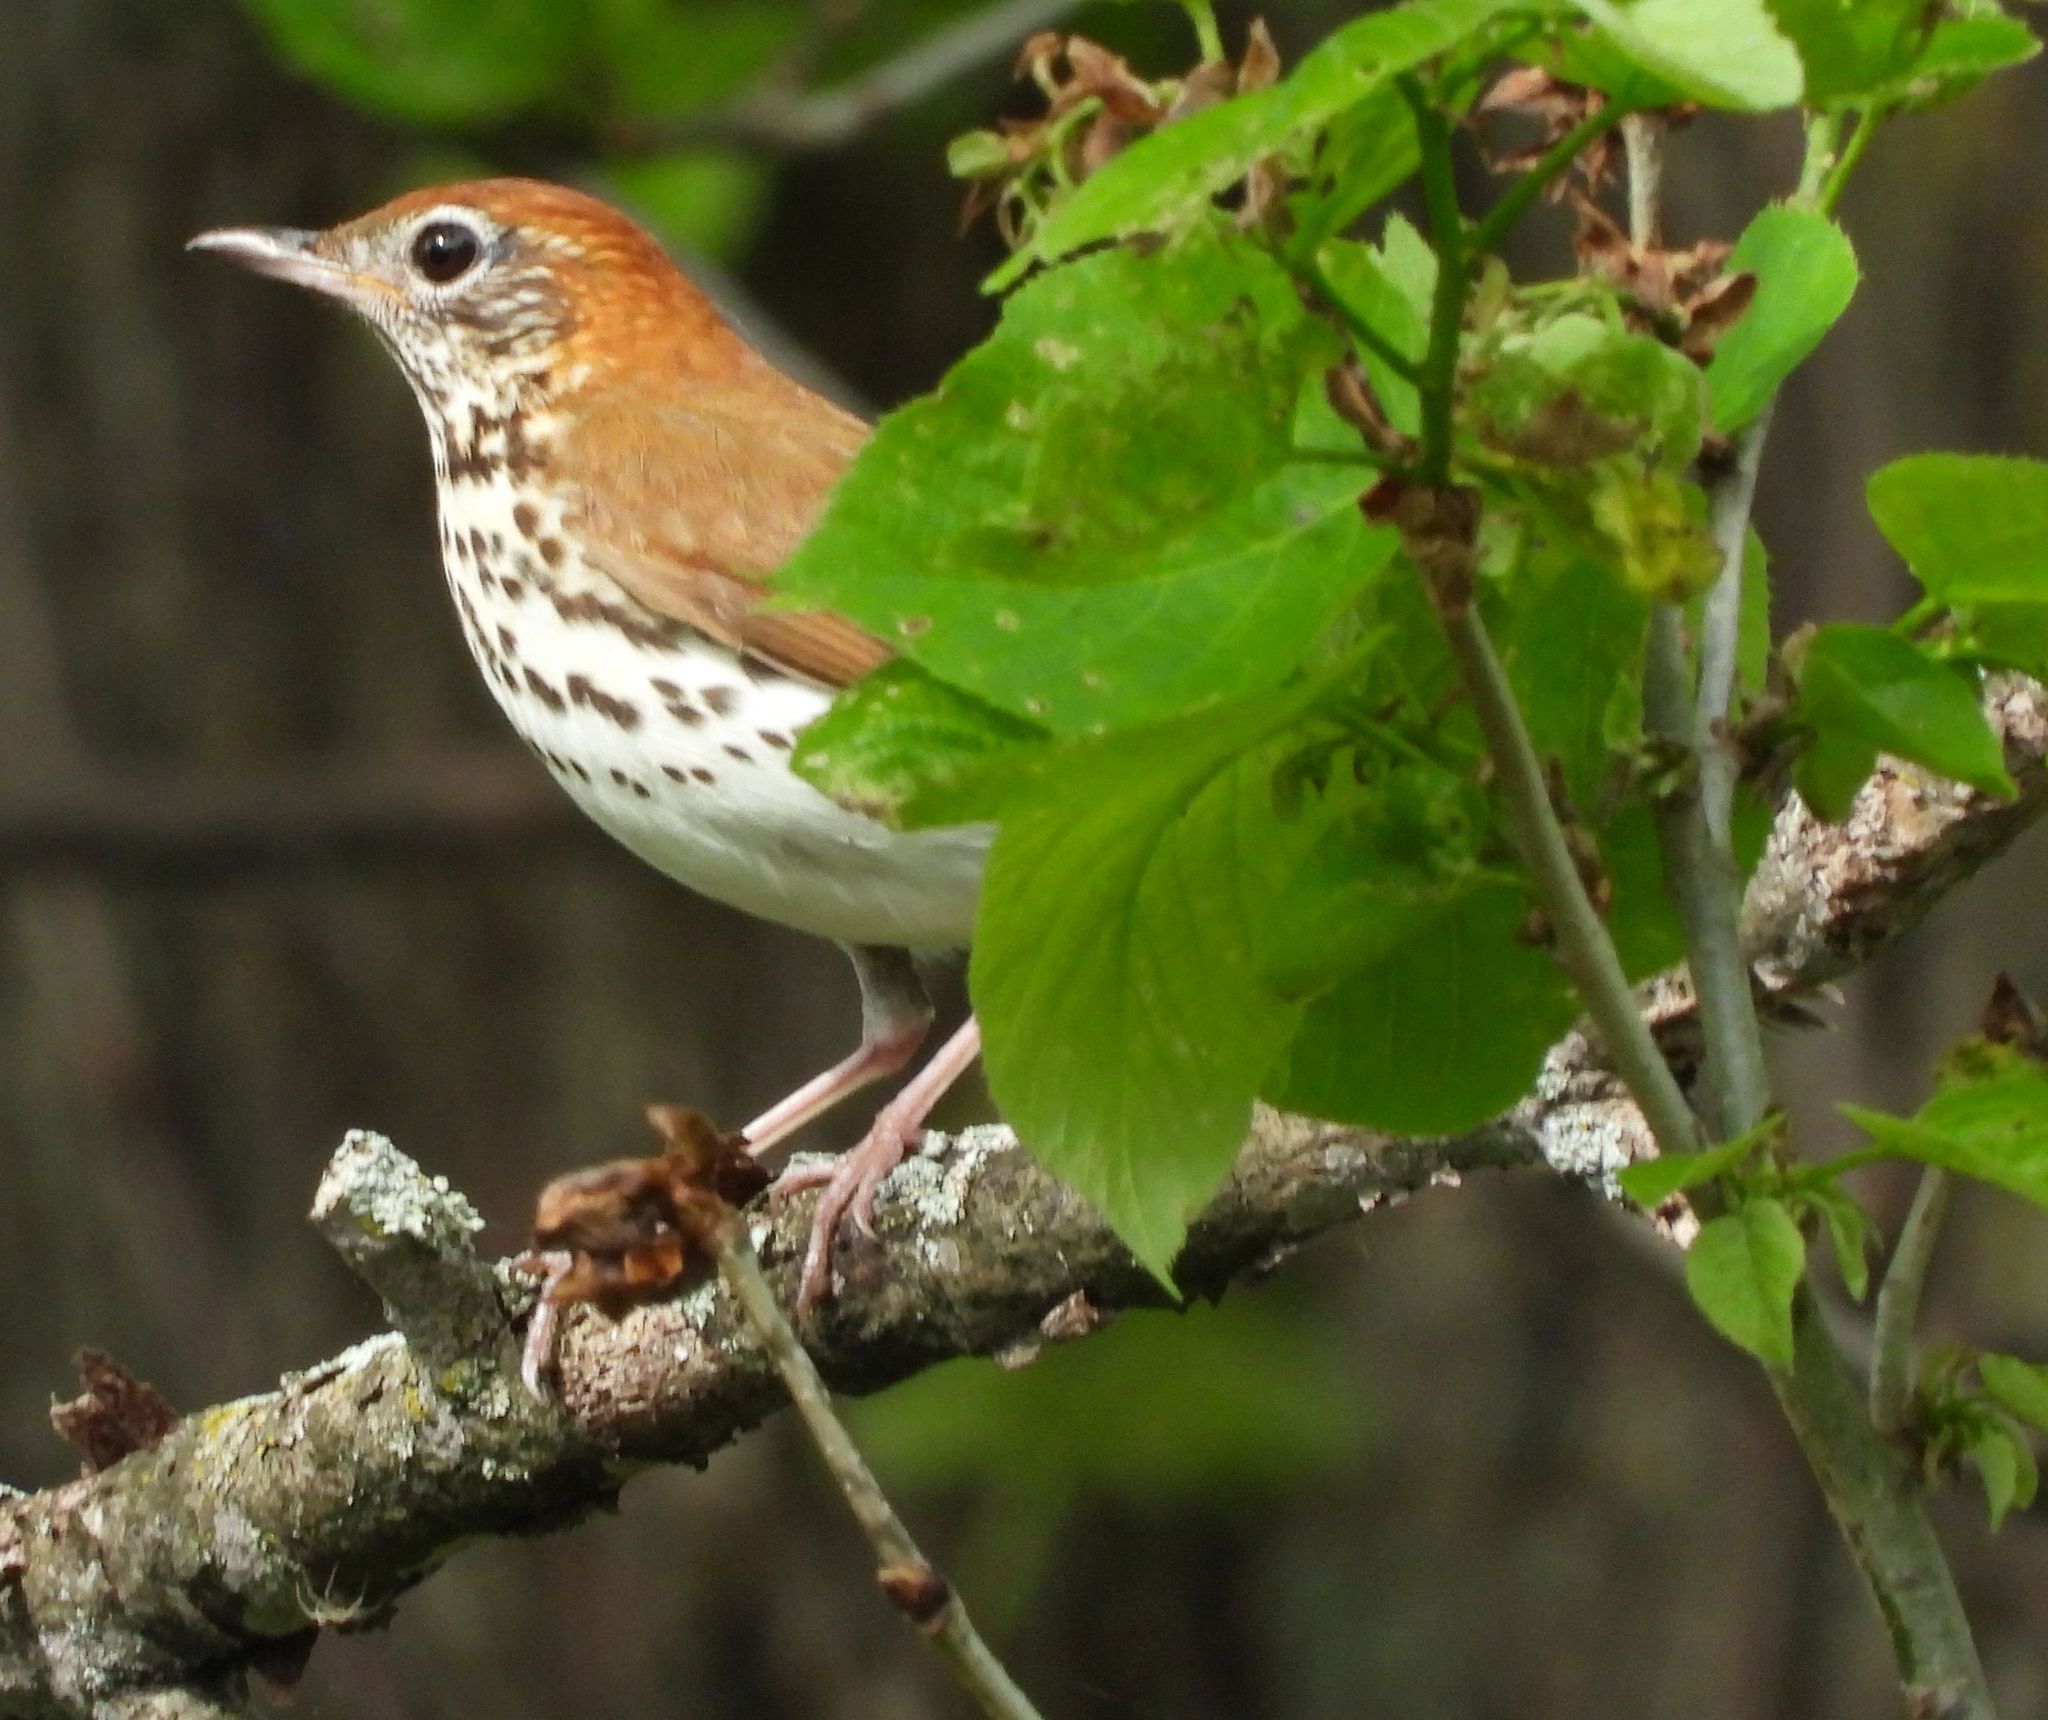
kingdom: Animalia
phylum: Chordata
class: Aves
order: Passeriformes
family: Turdidae
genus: Hylocichla
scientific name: Hylocichla mustelina
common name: Wood thrush
